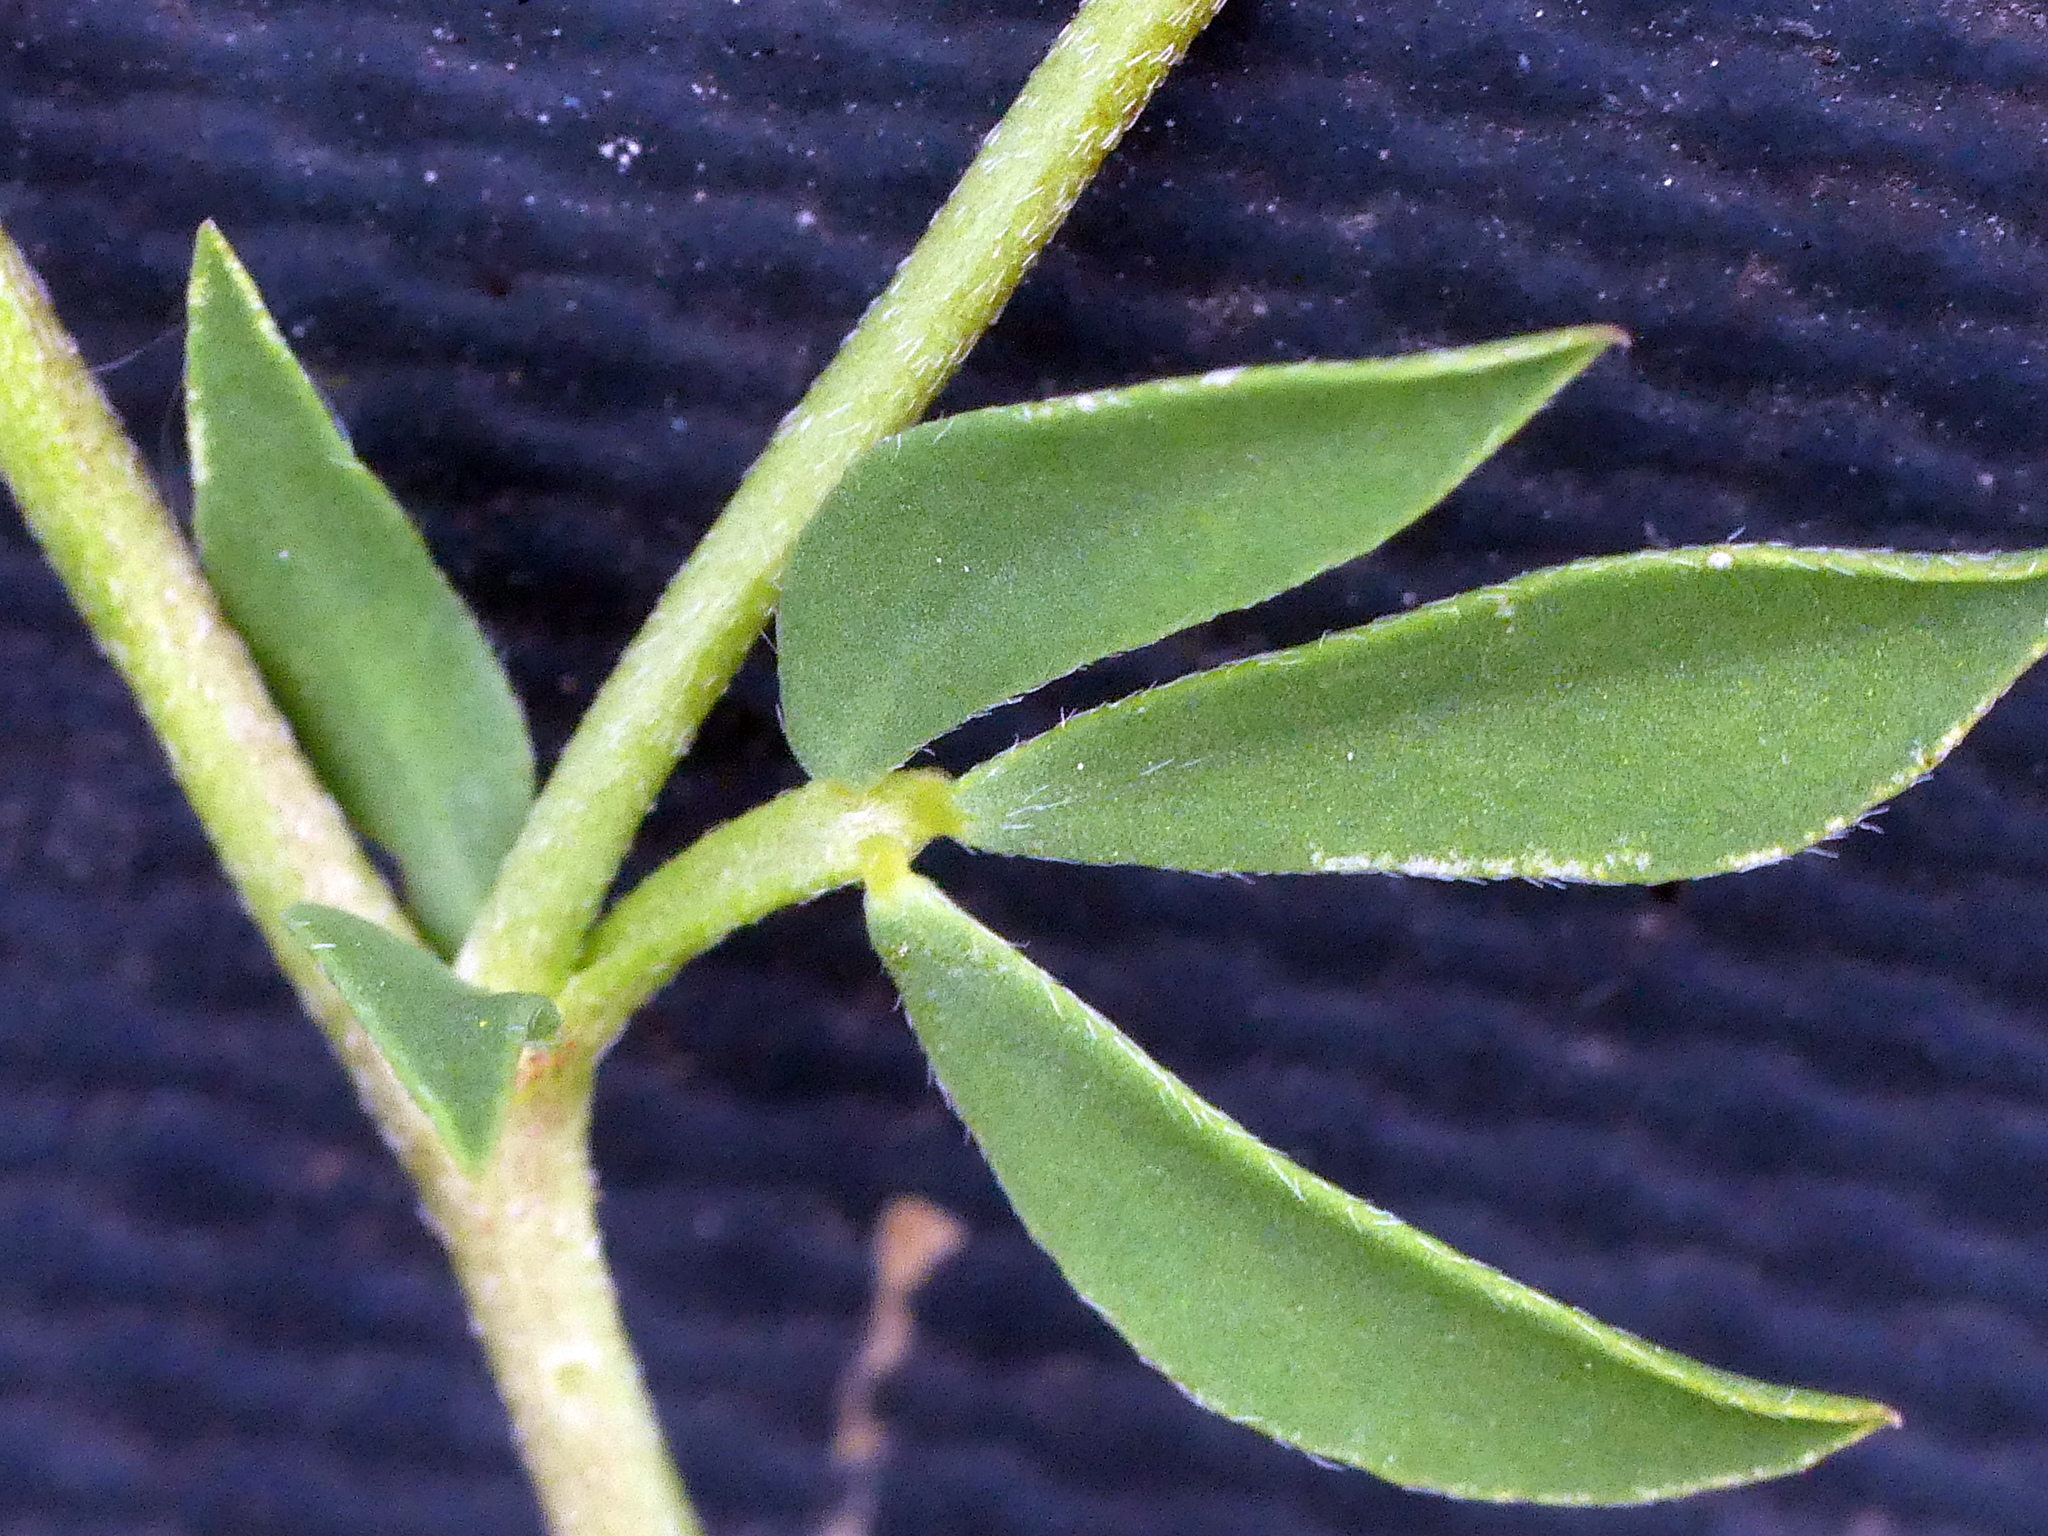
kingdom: Plantae
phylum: Tracheophyta
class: Magnoliopsida
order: Fabales
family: Fabaceae
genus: Lotus
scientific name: Lotus corniculatus
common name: Common bird's-foot-trefoil
